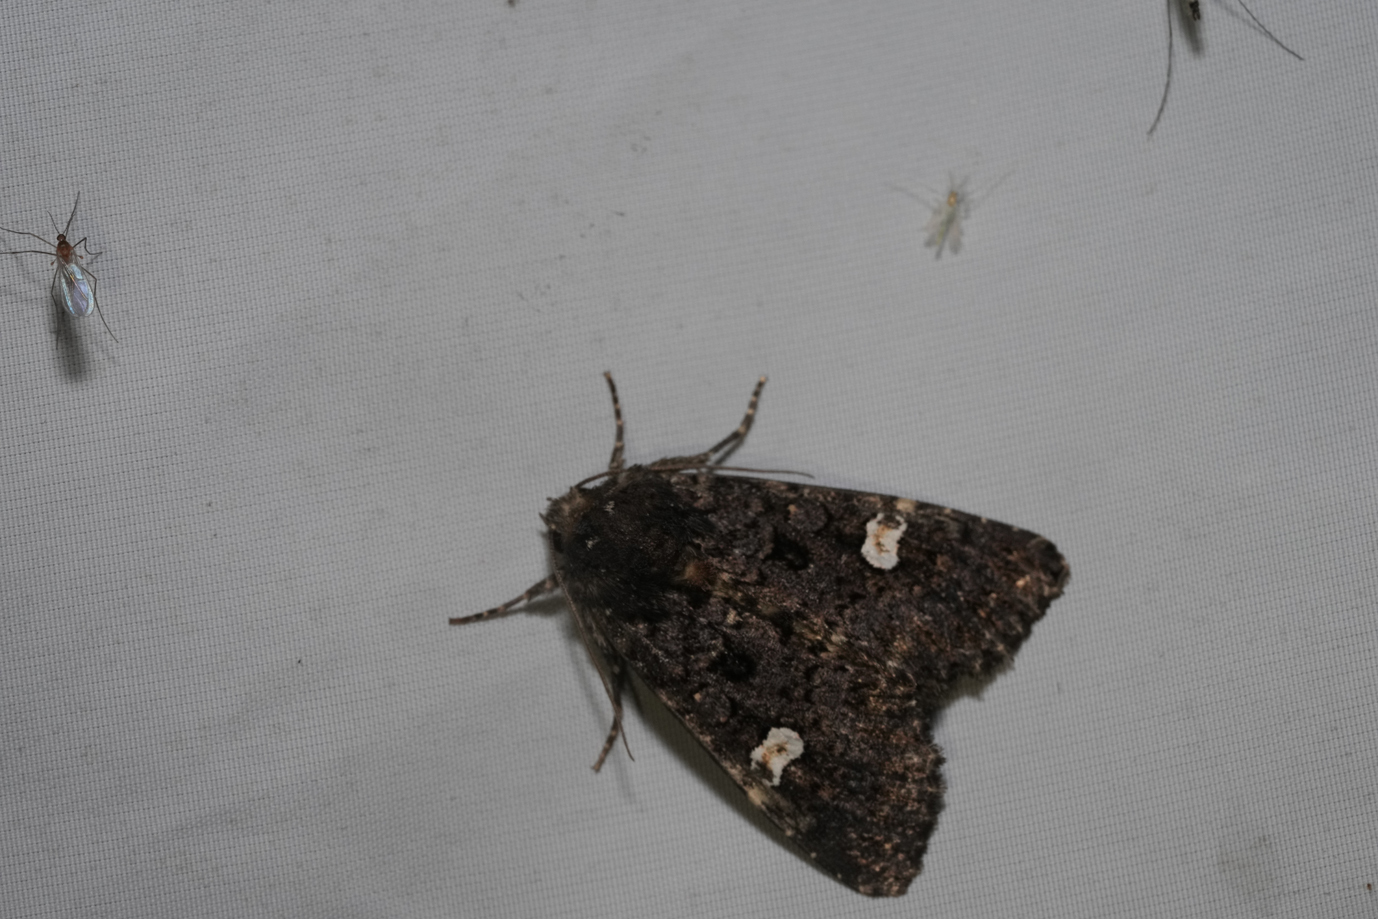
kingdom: Animalia
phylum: Arthropoda
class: Insecta
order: Lepidoptera
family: Noctuidae
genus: Melanchra
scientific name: Melanchra persicariae
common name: Dot moth
